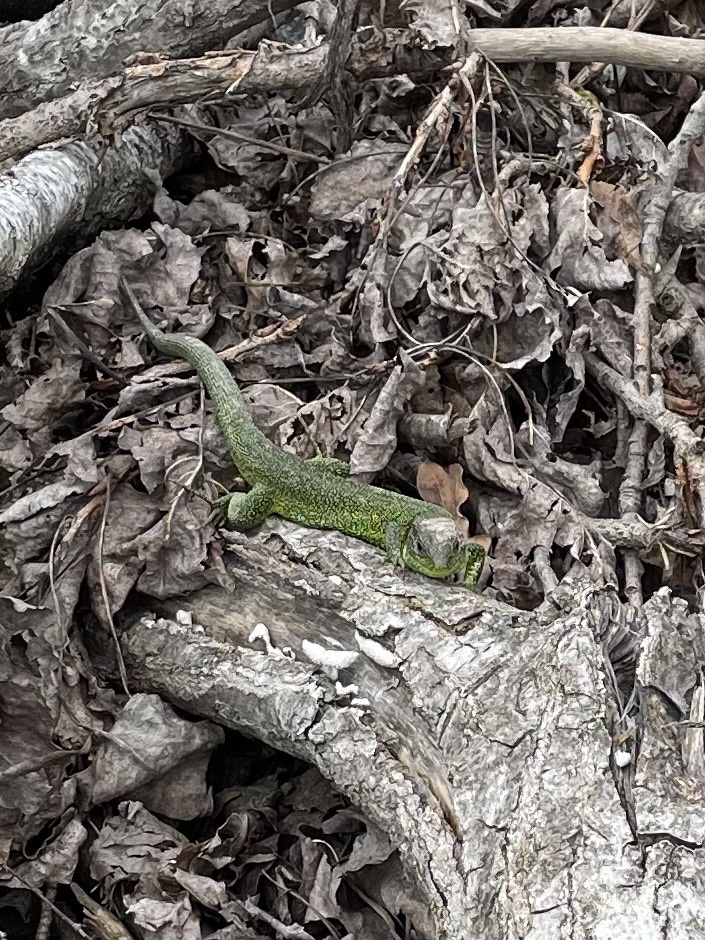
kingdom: Animalia
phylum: Chordata
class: Squamata
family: Lacertidae
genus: Lacerta
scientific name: Lacerta bilineata
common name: Western green lizard
